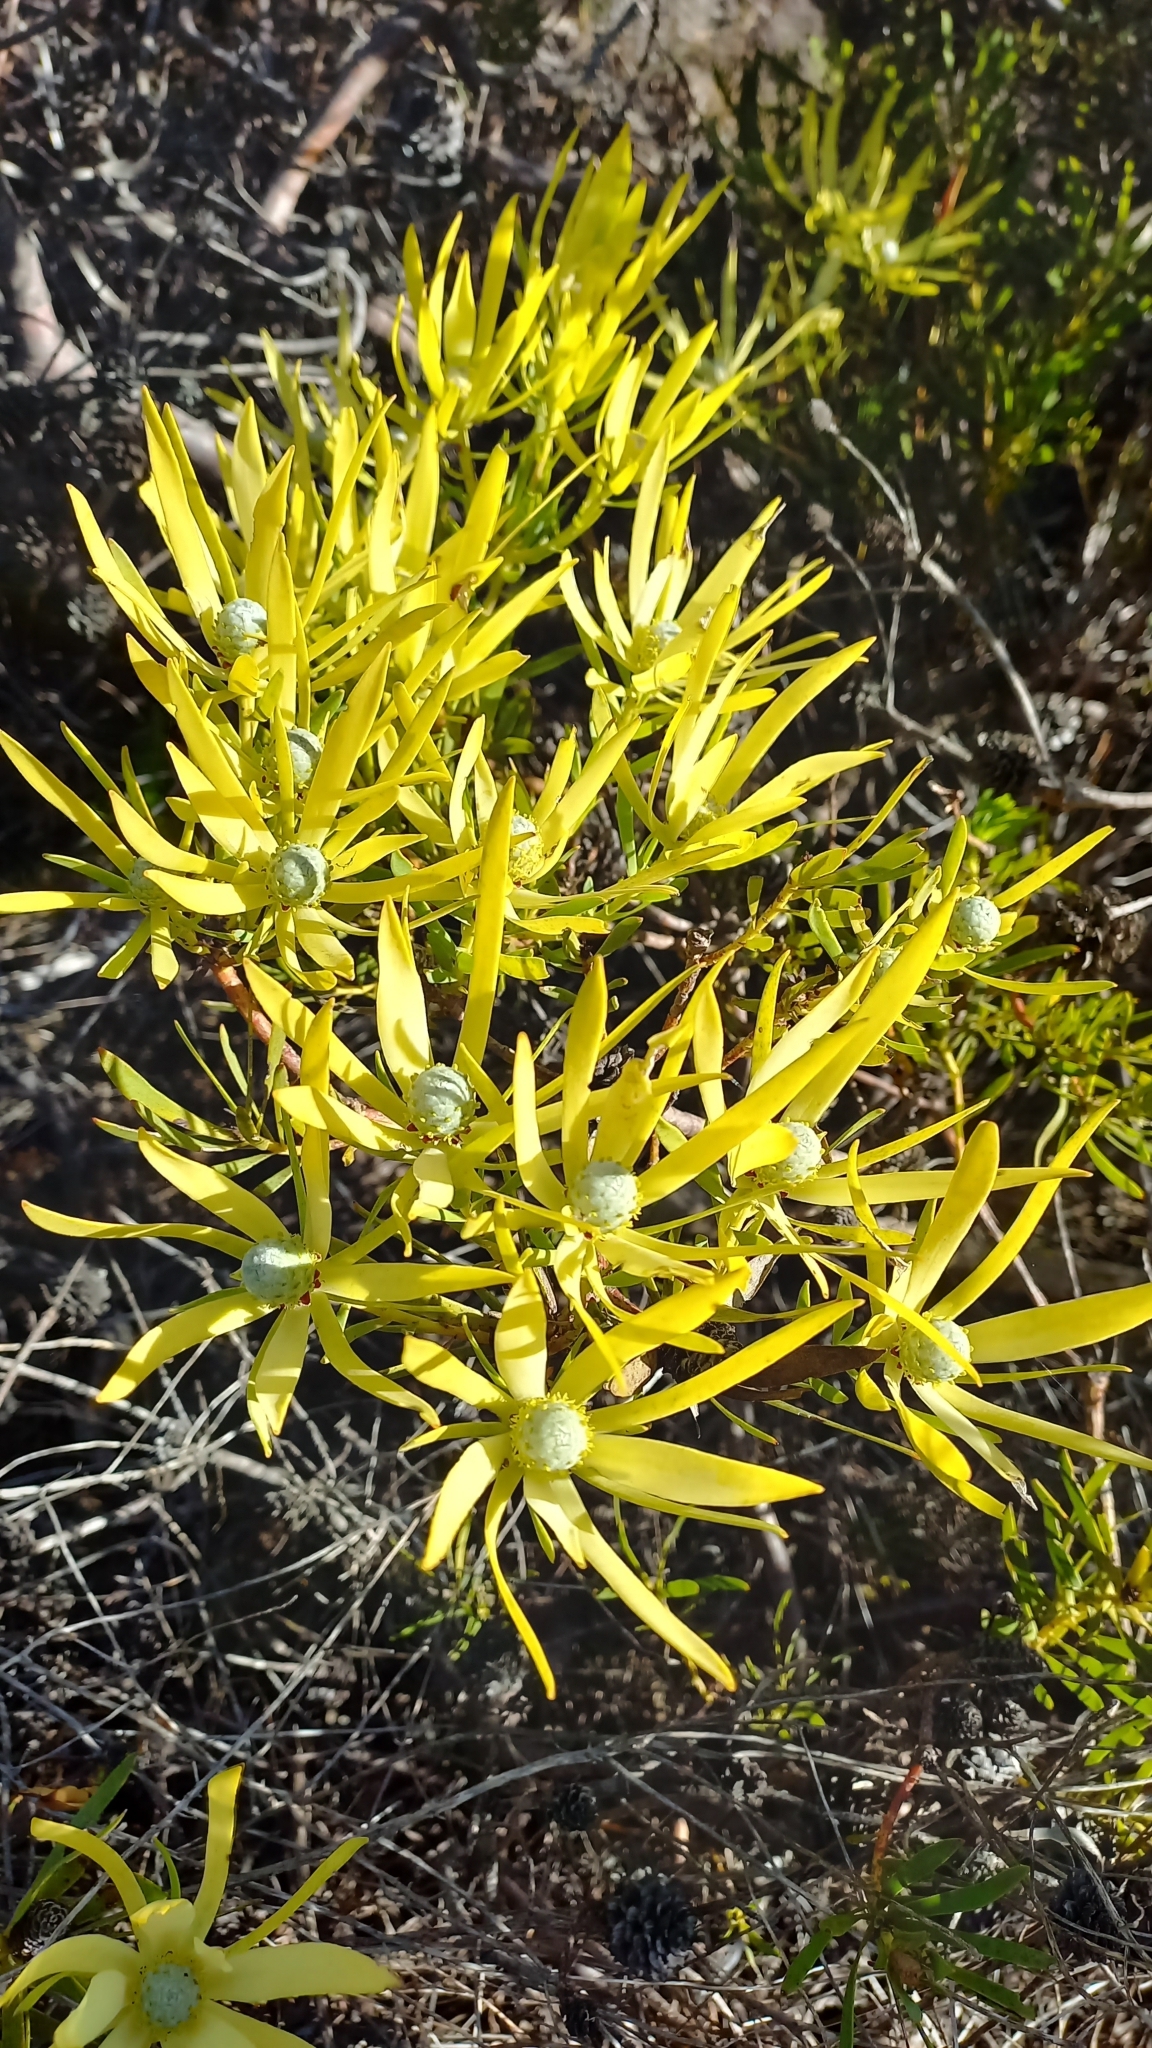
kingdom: Plantae
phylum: Tracheophyta
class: Magnoliopsida
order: Proteales
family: Proteaceae
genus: Leucadendron
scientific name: Leucadendron salignum
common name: Common sunshine conebush
